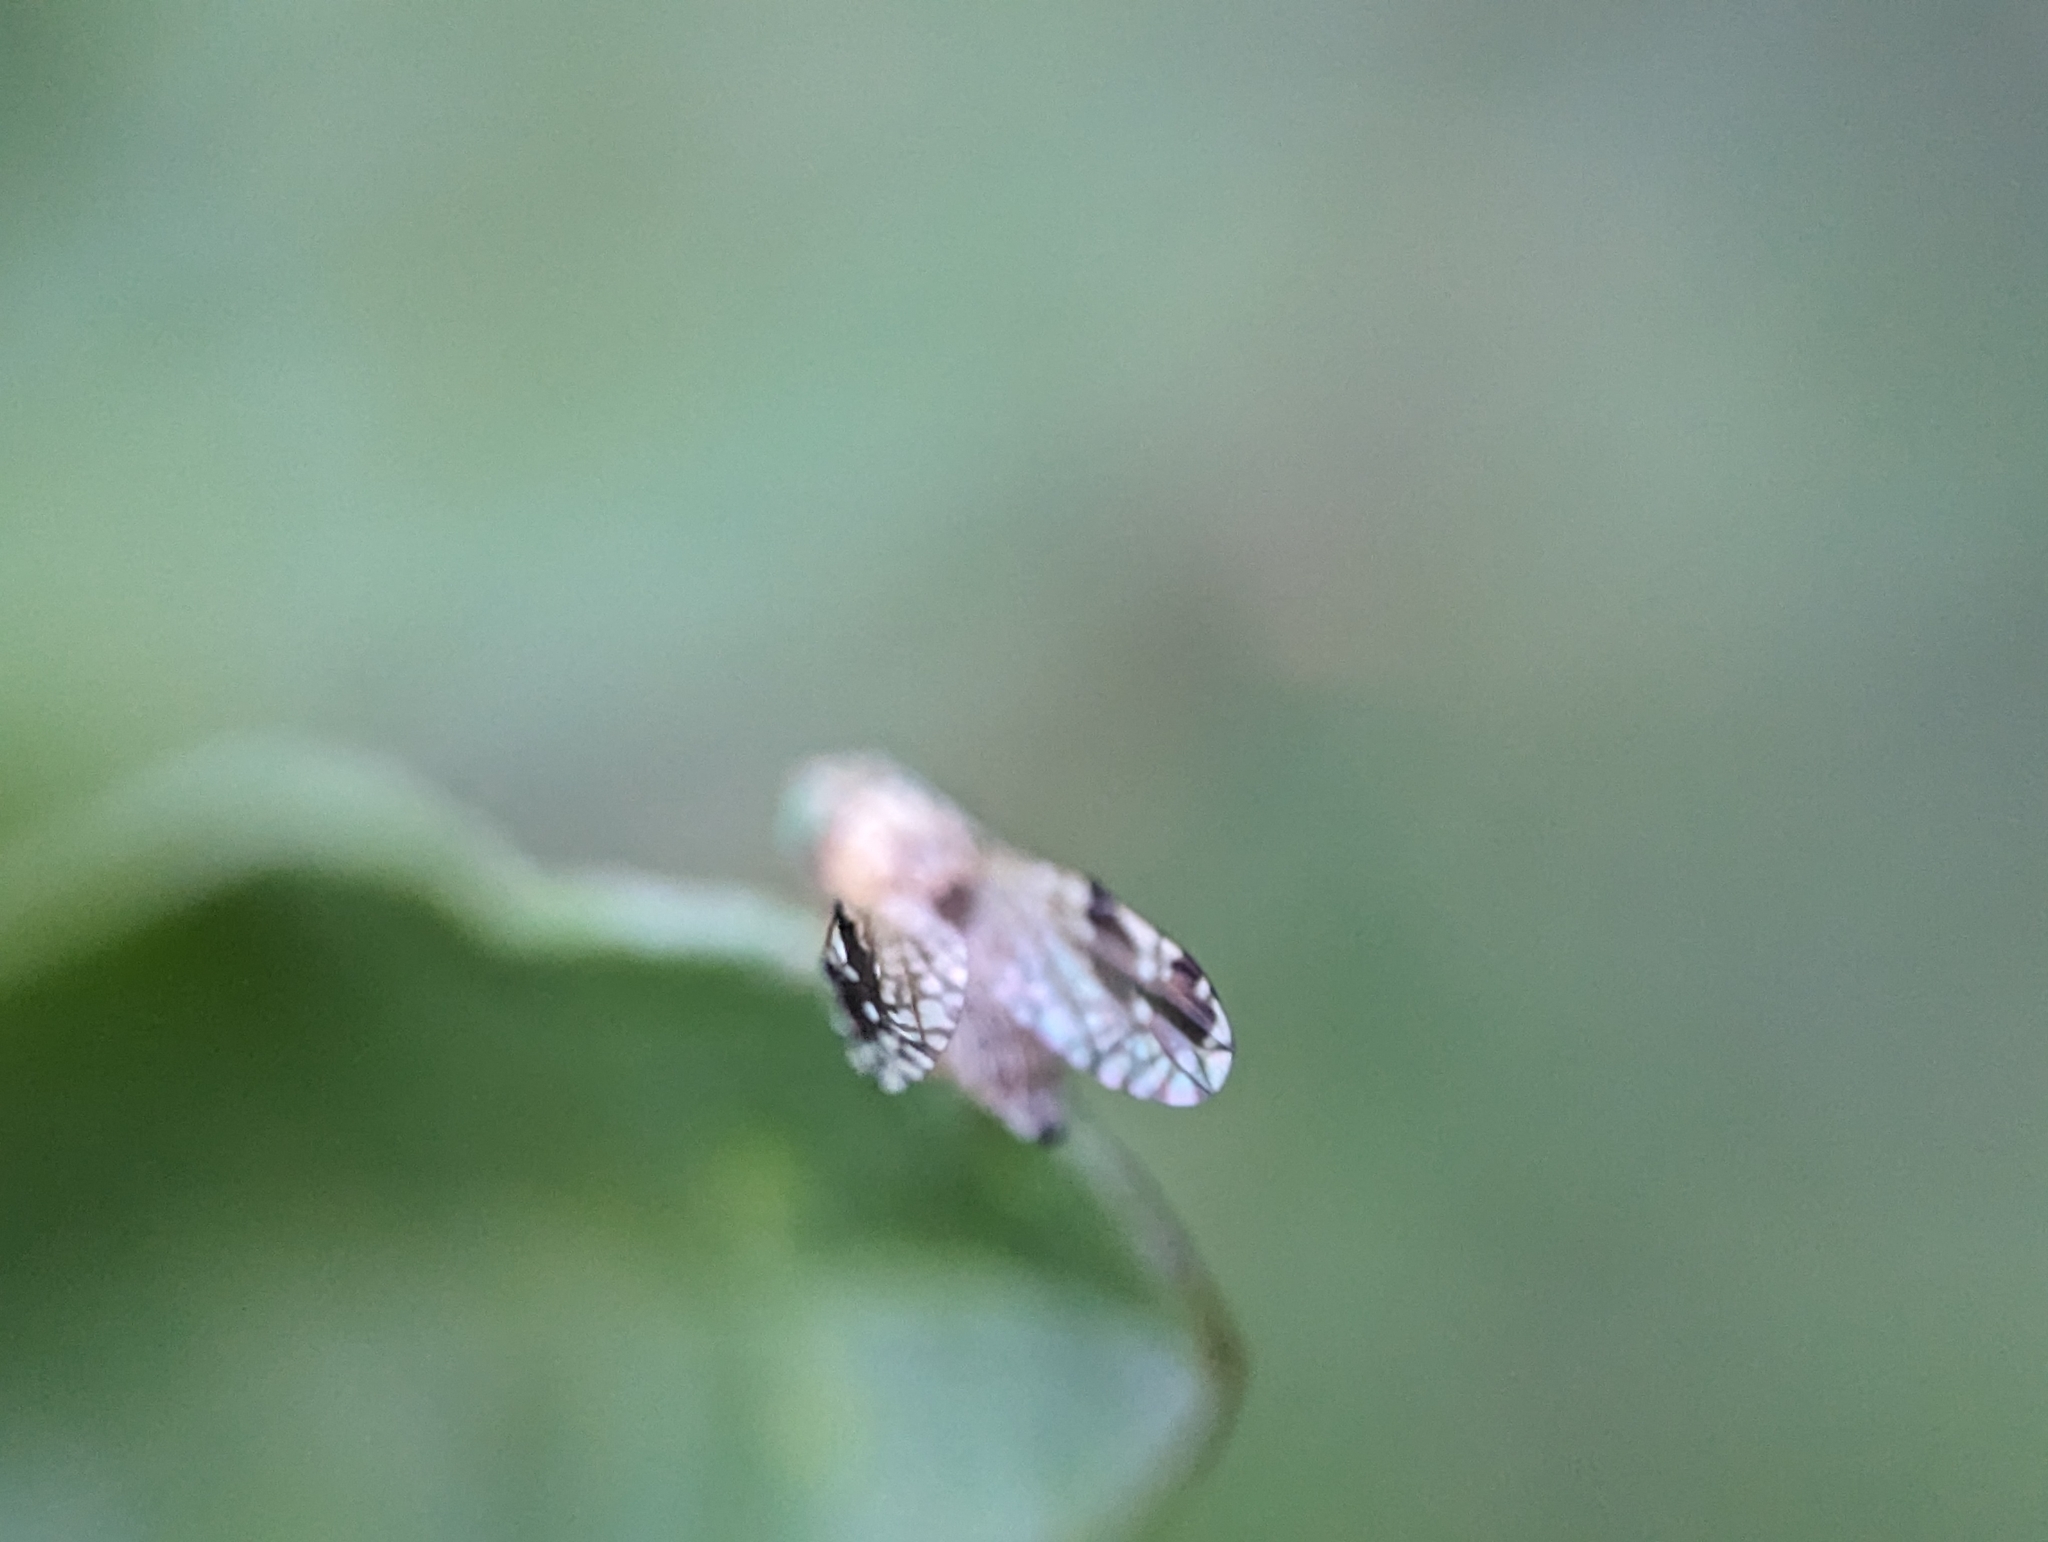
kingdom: Animalia
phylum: Arthropoda
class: Insecta
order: Diptera
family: Tephritidae
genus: Tephritis
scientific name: Tephritis subpura
